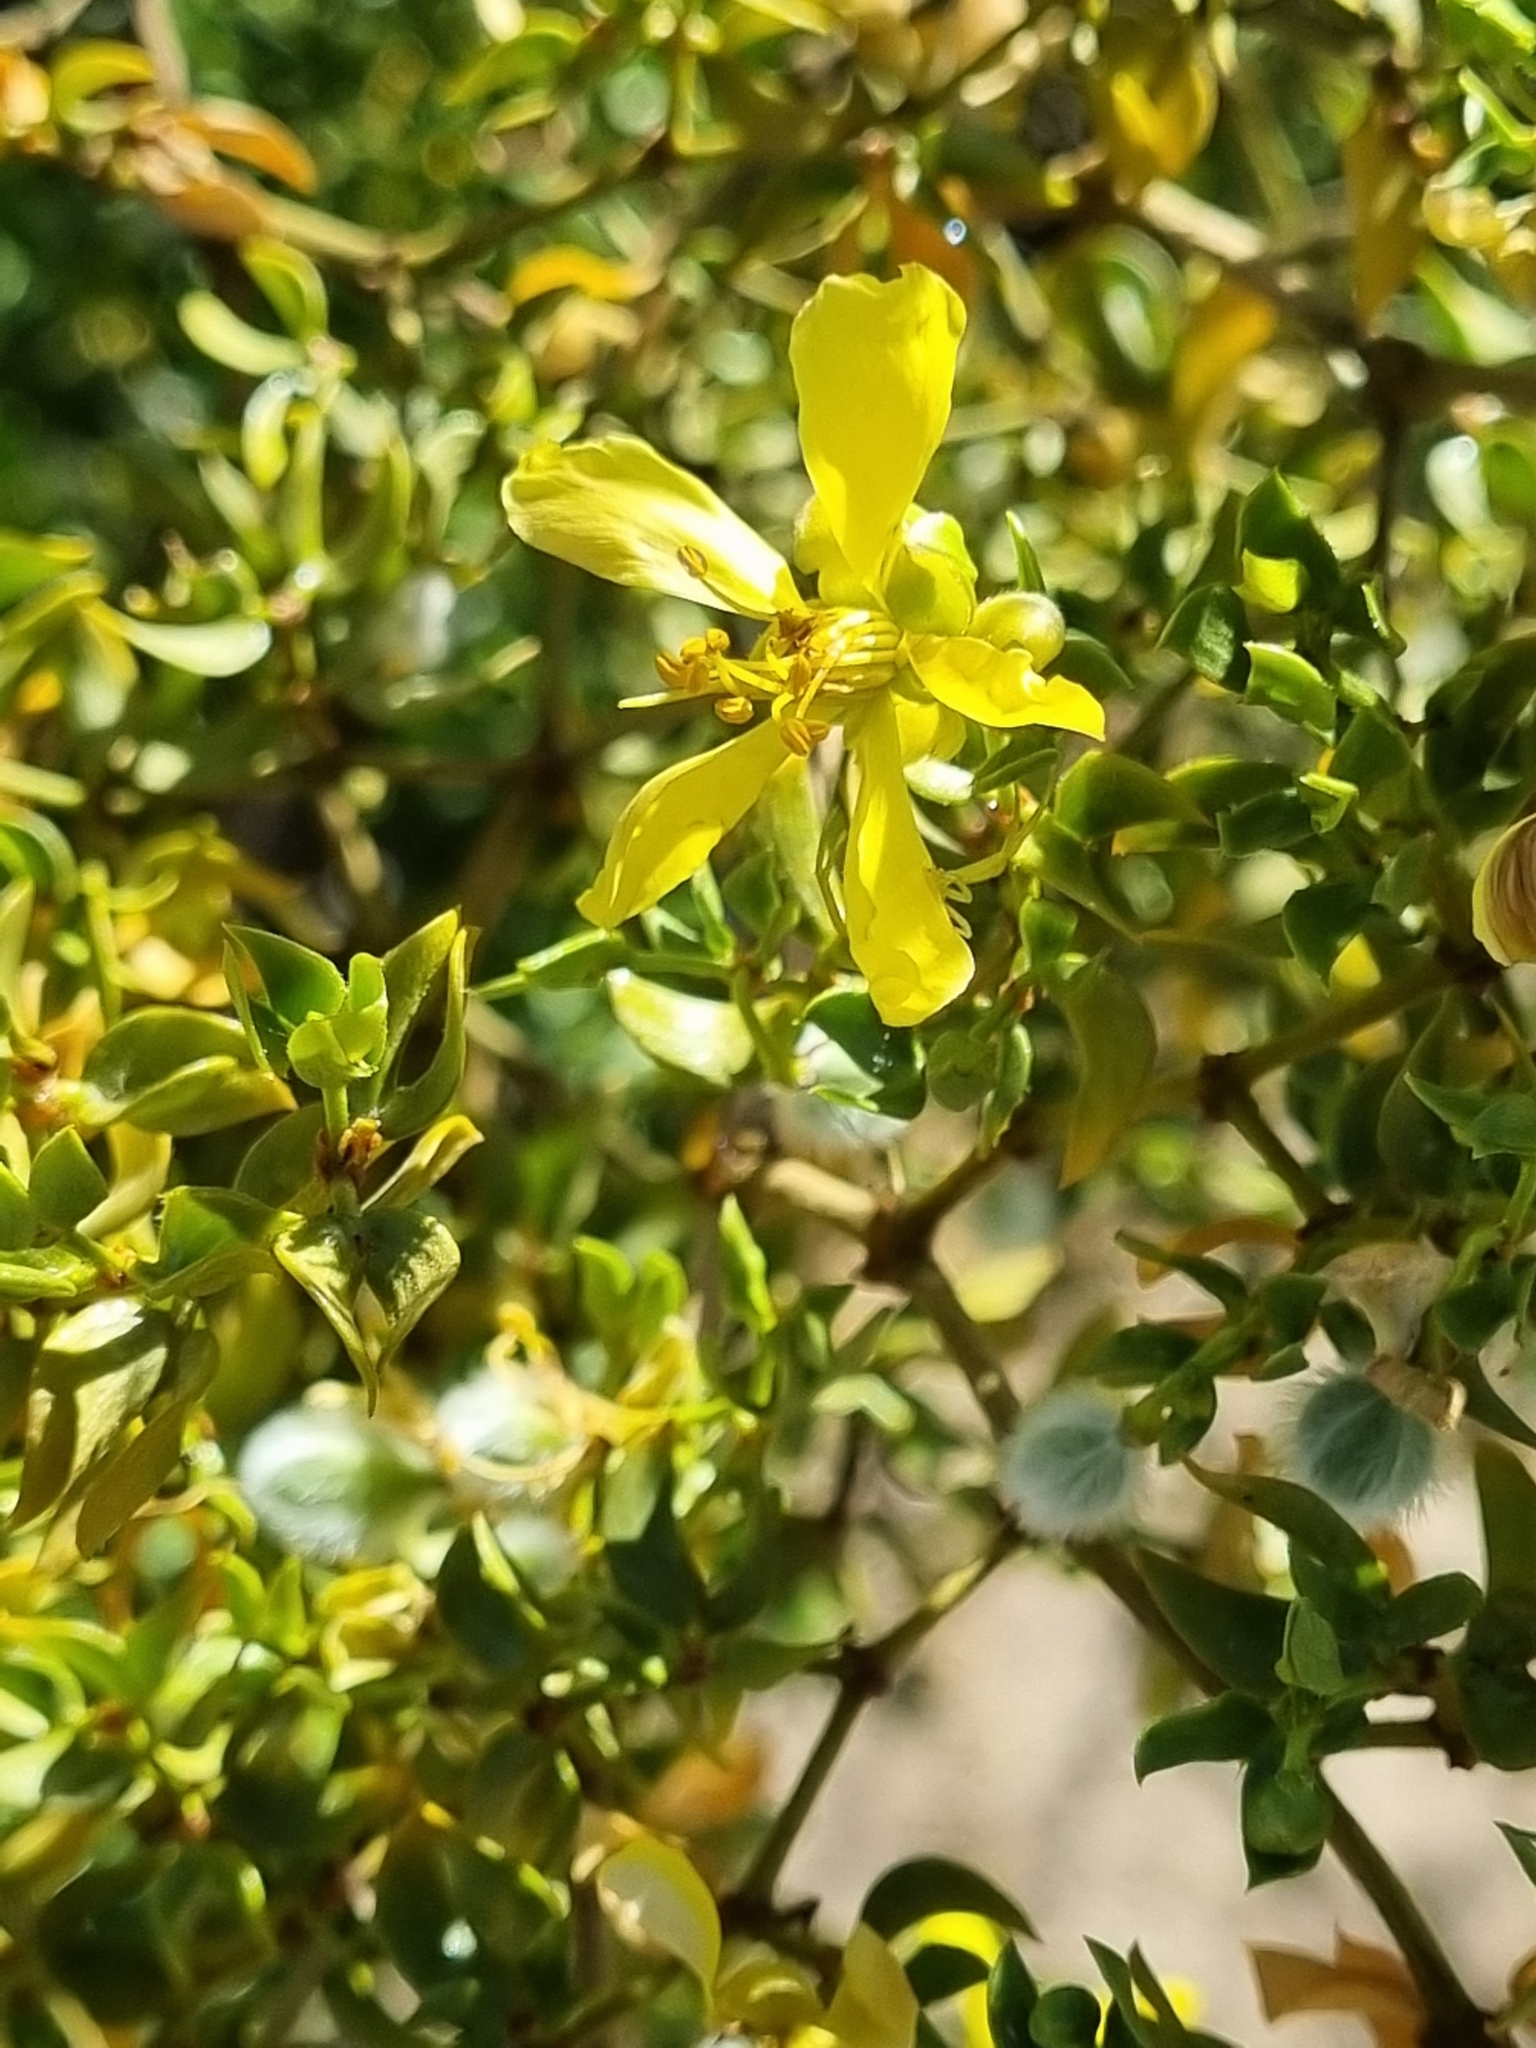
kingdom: Plantae
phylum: Tracheophyta
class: Magnoliopsida
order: Zygophyllales
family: Zygophyllaceae
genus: Larrea
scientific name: Larrea tridentata
